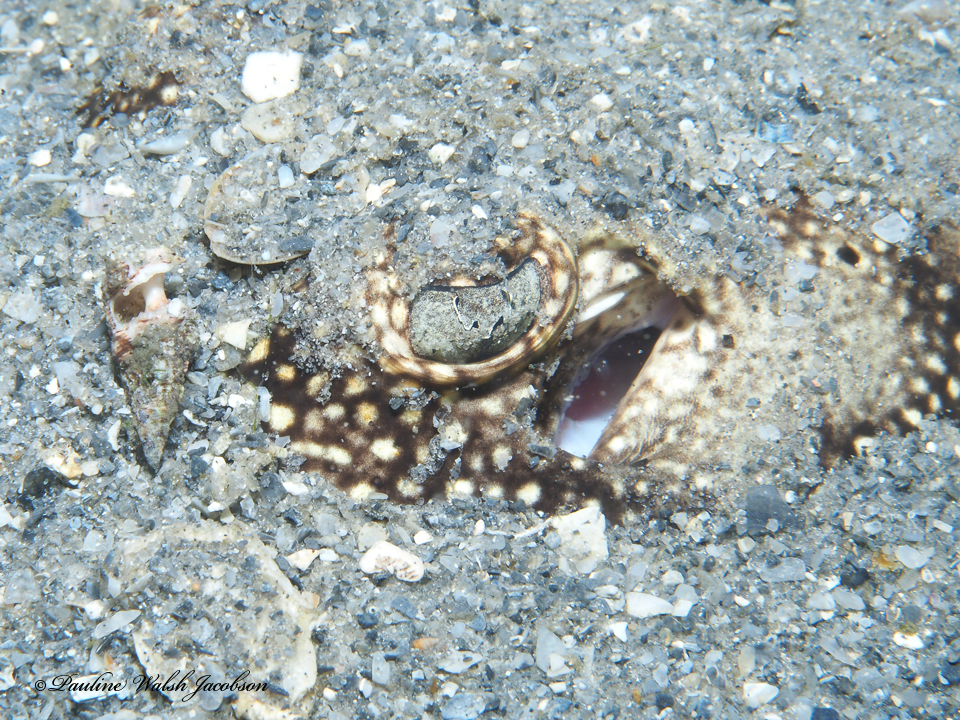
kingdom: Animalia
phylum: Chordata
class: Elasmobranchii
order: Myliobatiformes
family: Urotrygonidae
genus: Urobatis
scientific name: Urobatis jamaicensis
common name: Yellow stingray
